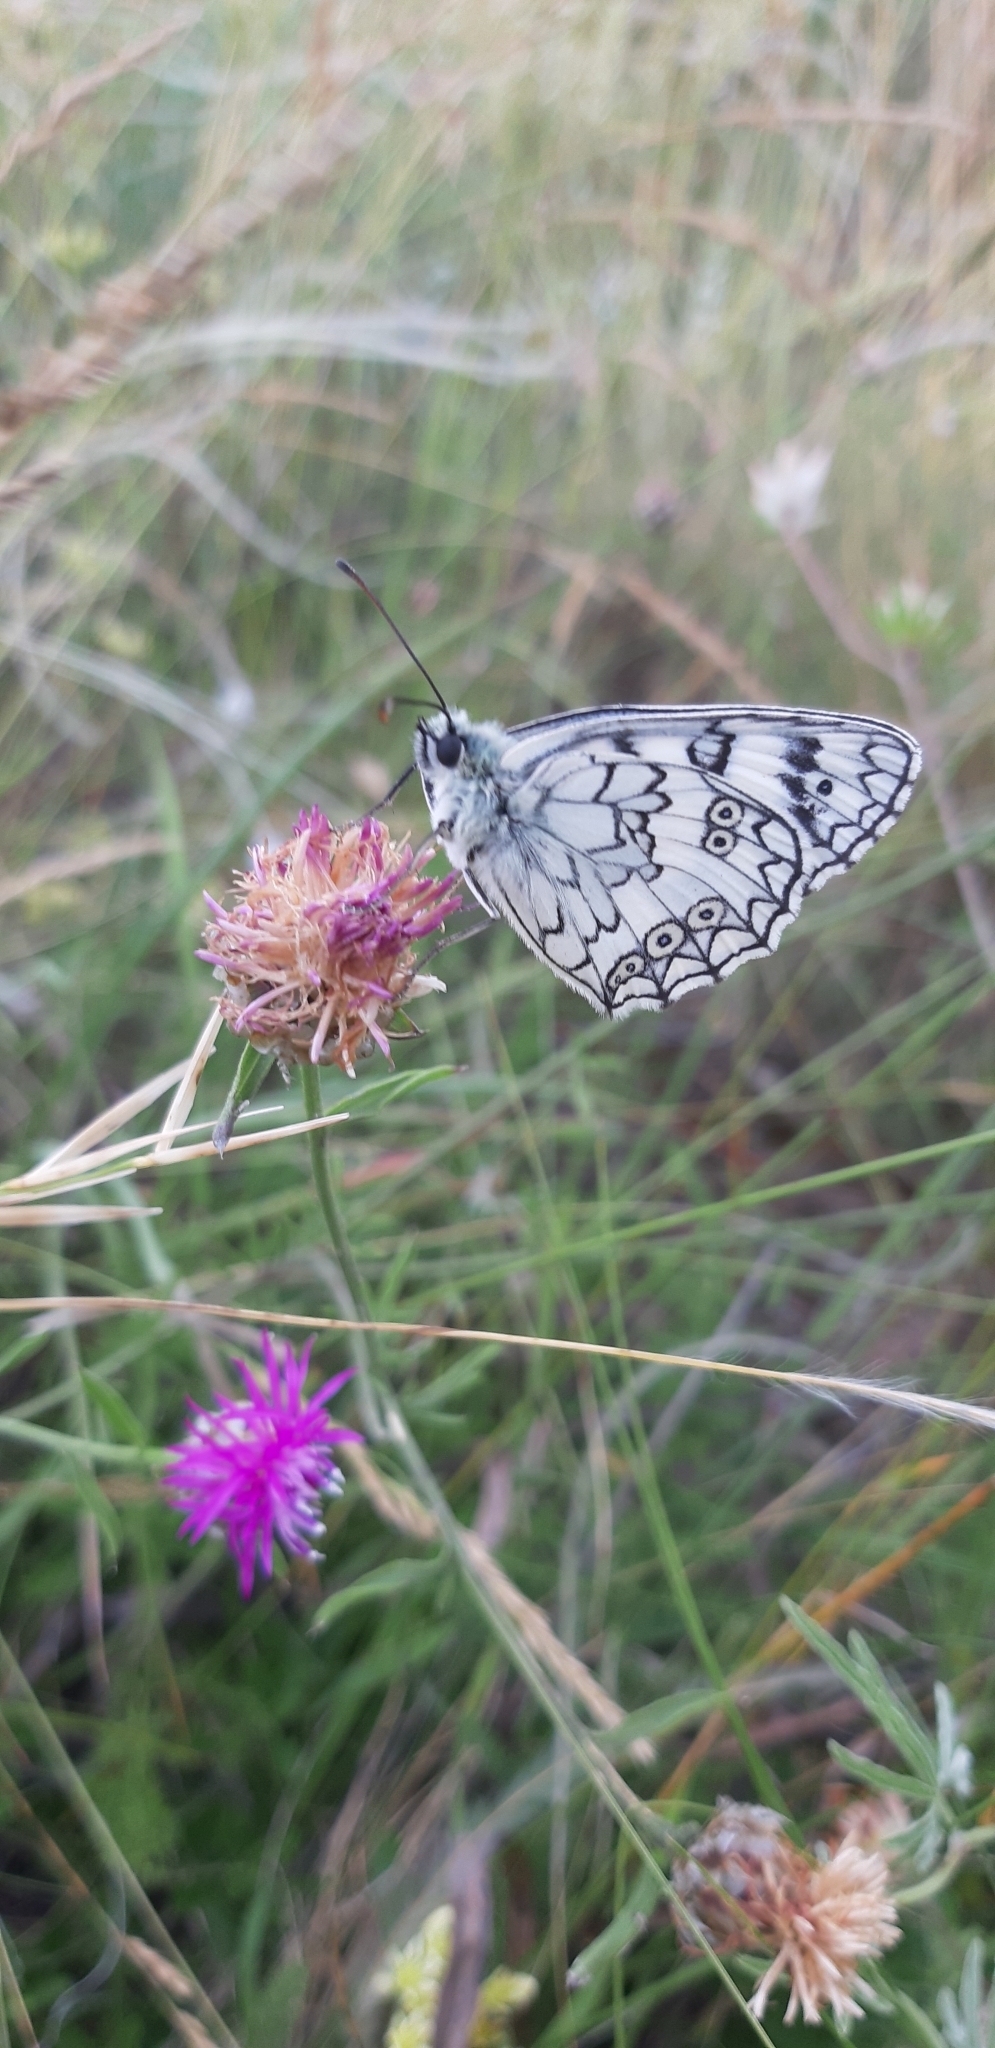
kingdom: Animalia
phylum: Arthropoda
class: Insecta
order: Lepidoptera
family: Nymphalidae
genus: Melanargia
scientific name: Melanargia japygia
